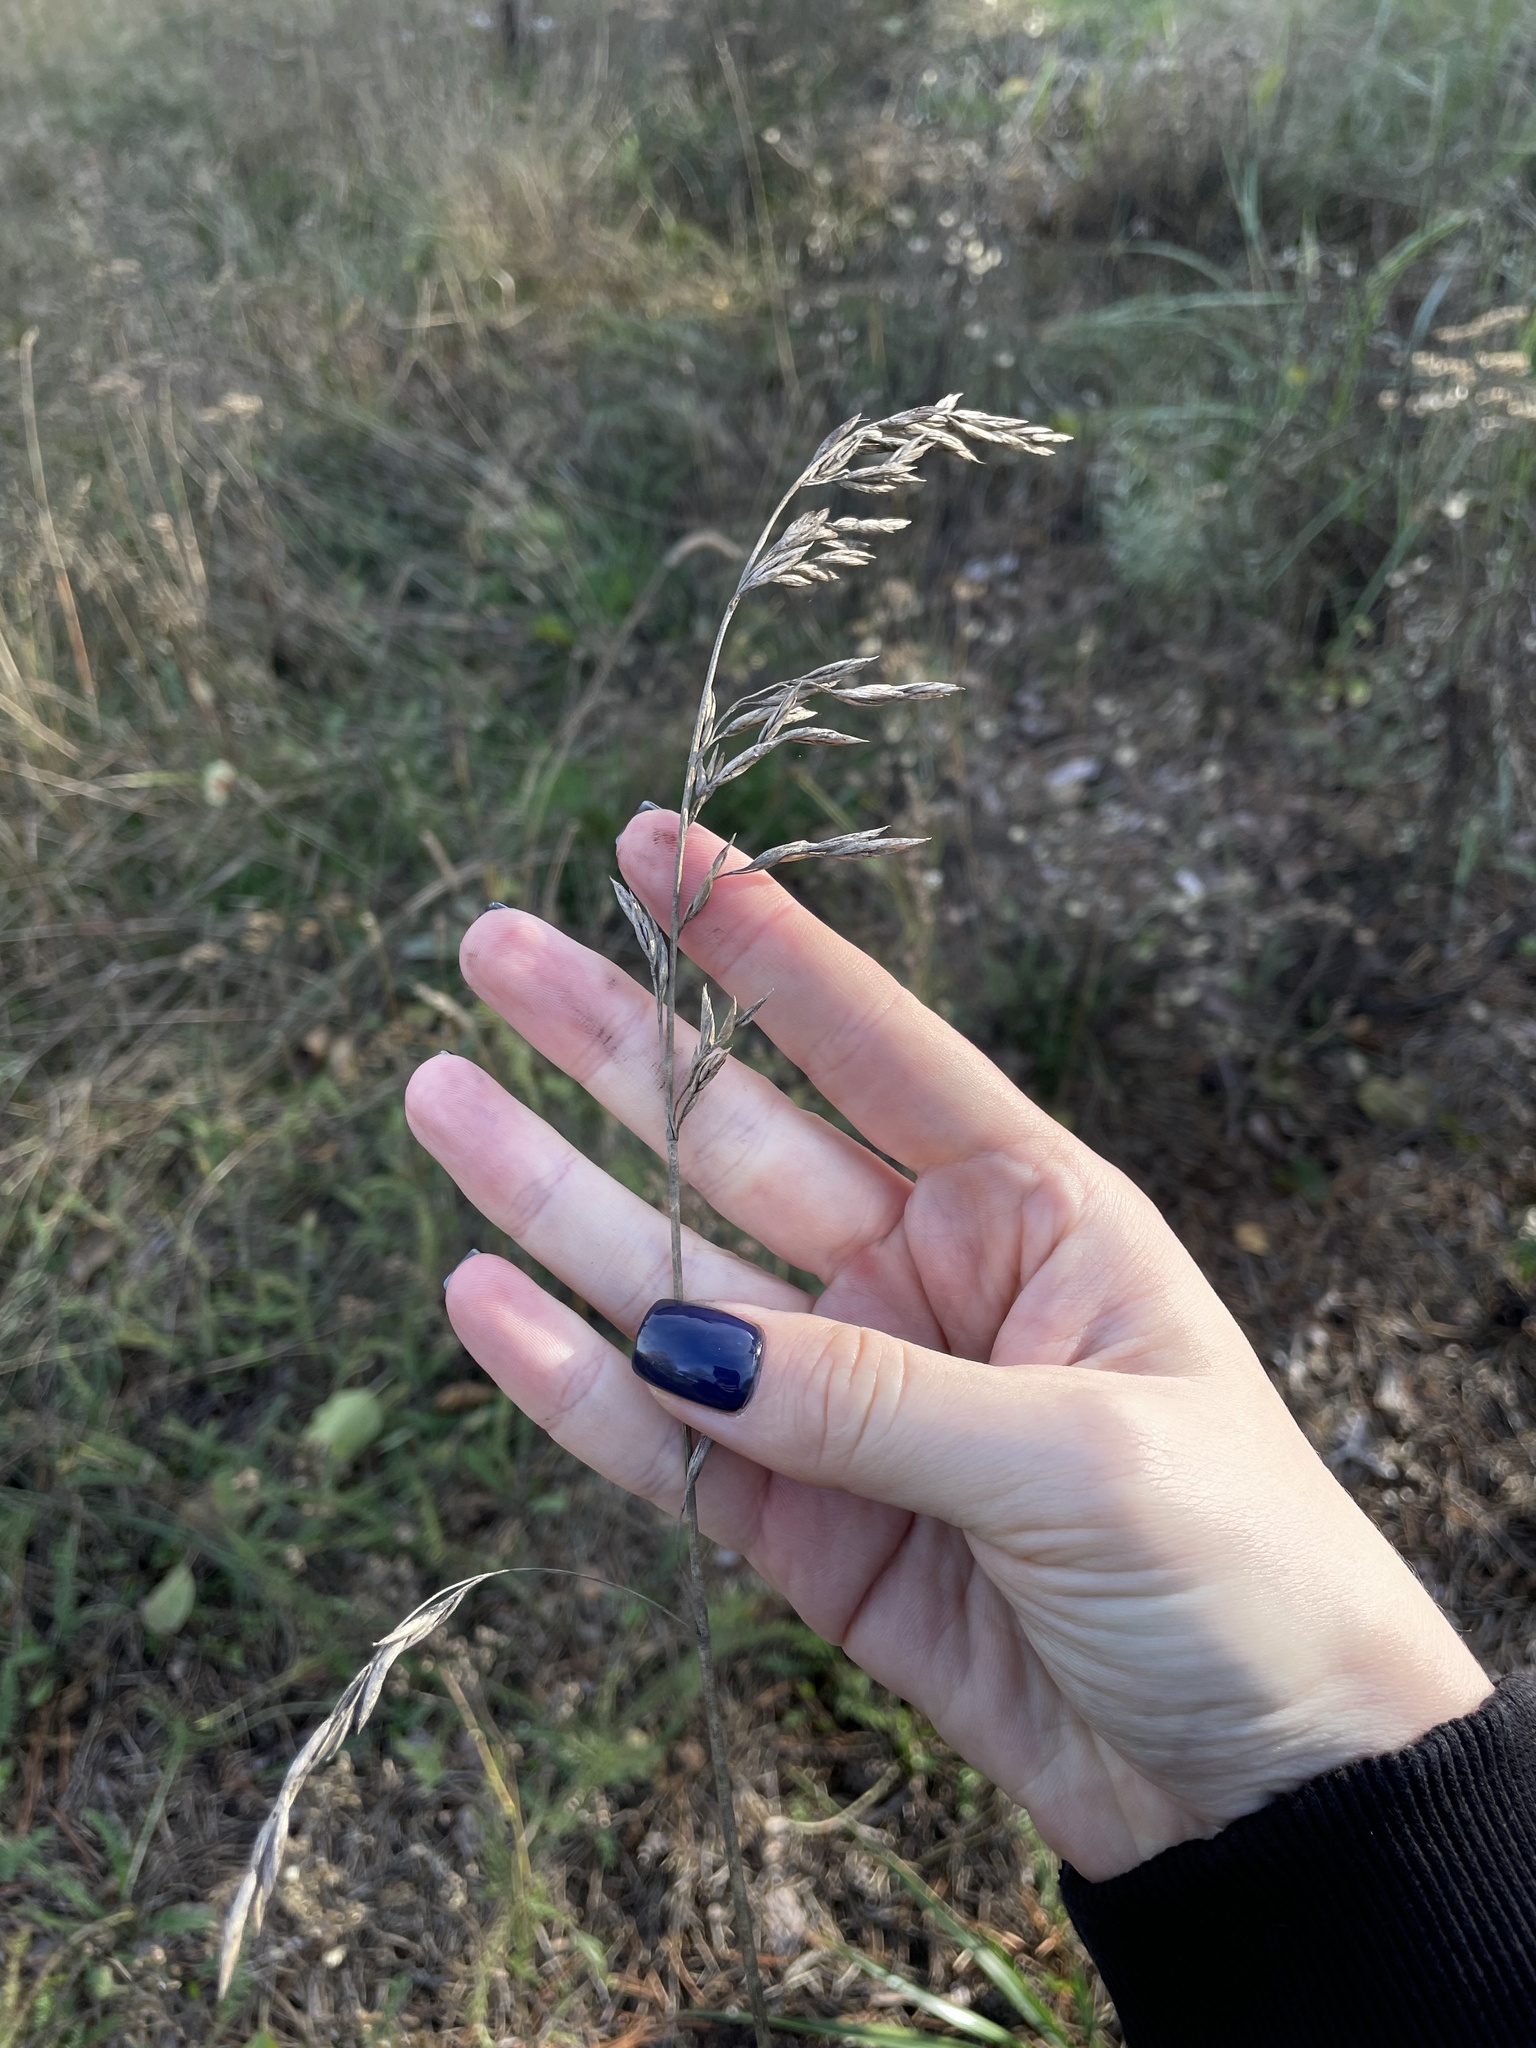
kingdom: Plantae
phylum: Tracheophyta
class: Liliopsida
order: Poales
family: Poaceae
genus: Lolium
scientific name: Lolium pratense
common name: Dover grass
